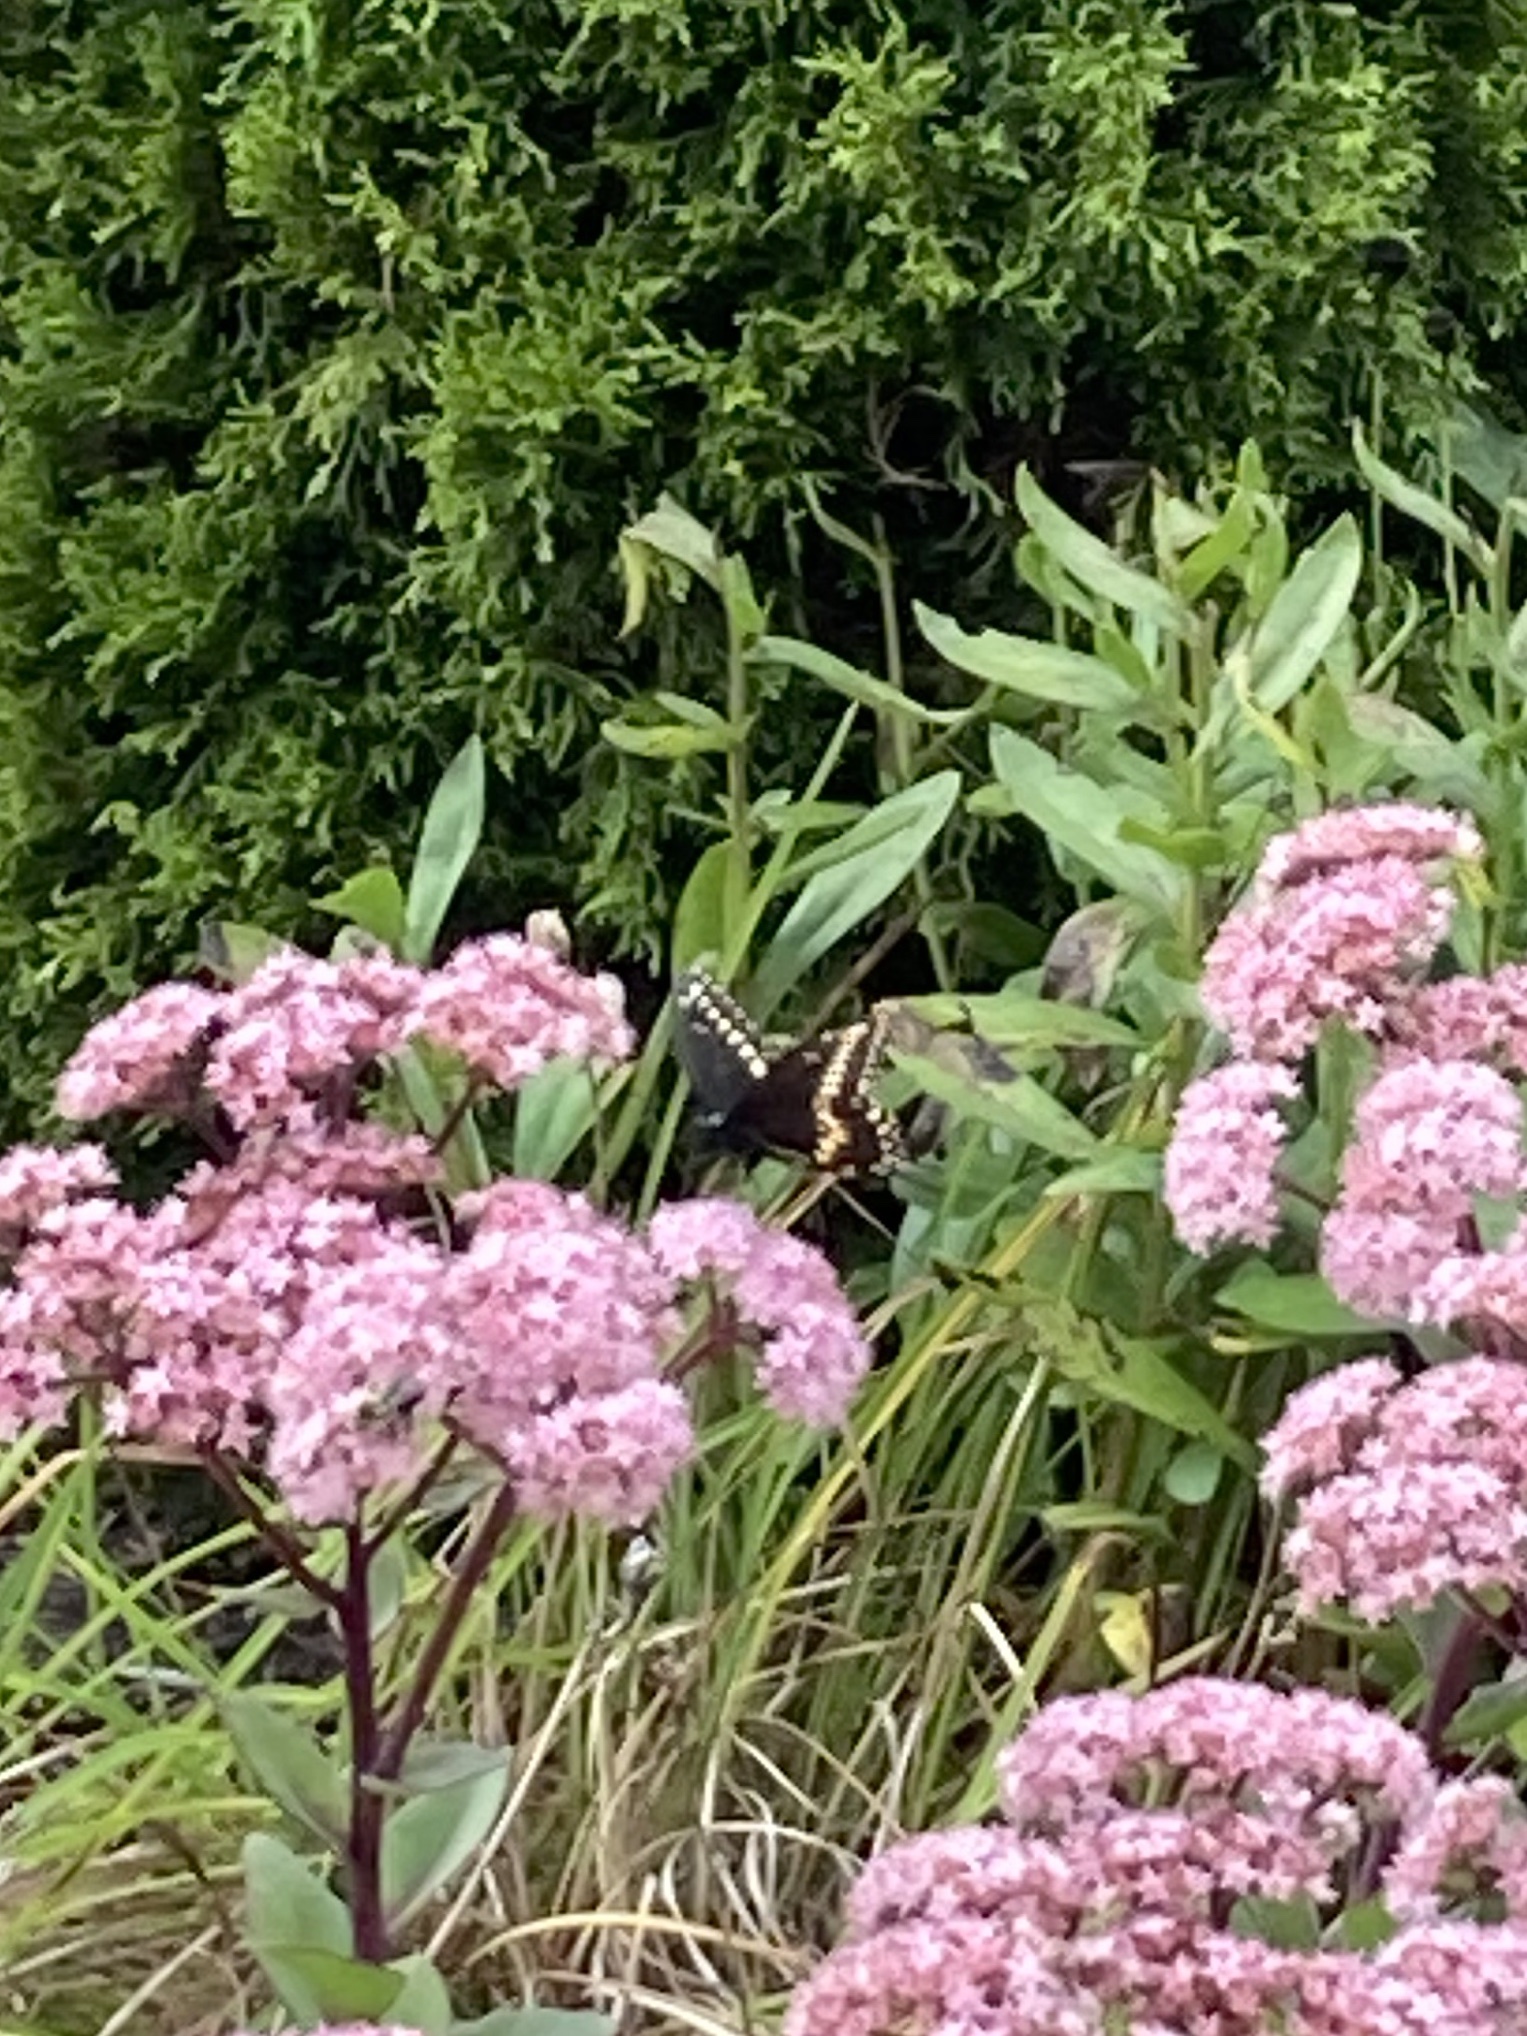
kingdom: Animalia
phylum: Arthropoda
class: Insecta
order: Lepidoptera
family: Papilionidae
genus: Papilio
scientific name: Papilio polyxenes
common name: Black swallowtail
